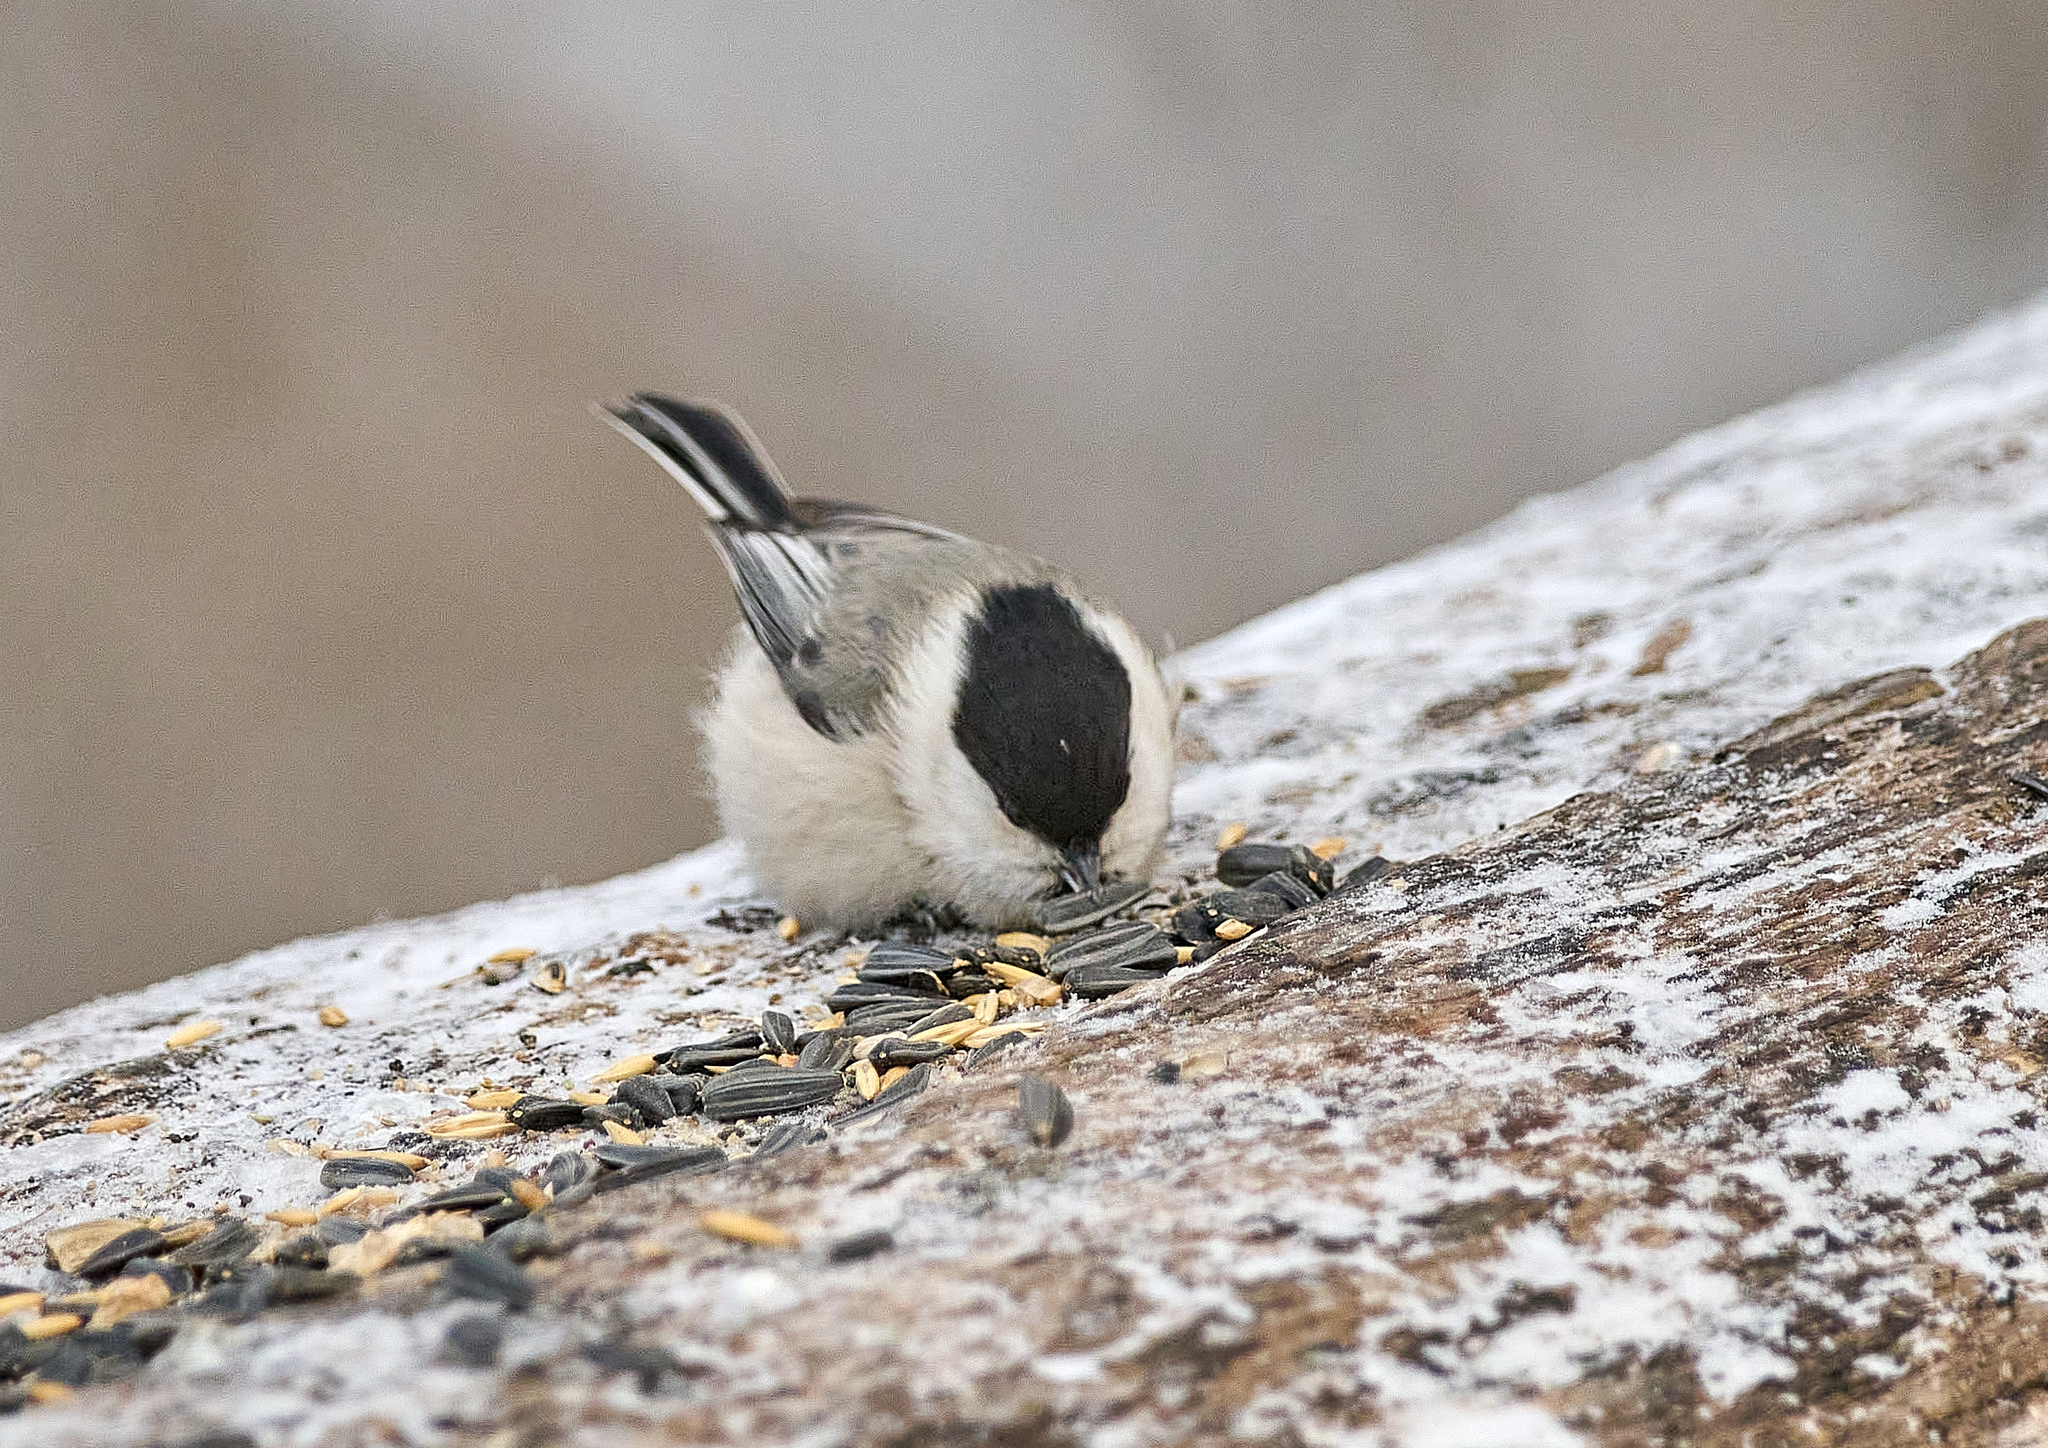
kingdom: Animalia
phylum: Chordata
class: Aves
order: Passeriformes
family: Paridae
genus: Poecile
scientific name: Poecile montanus
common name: Willow tit
